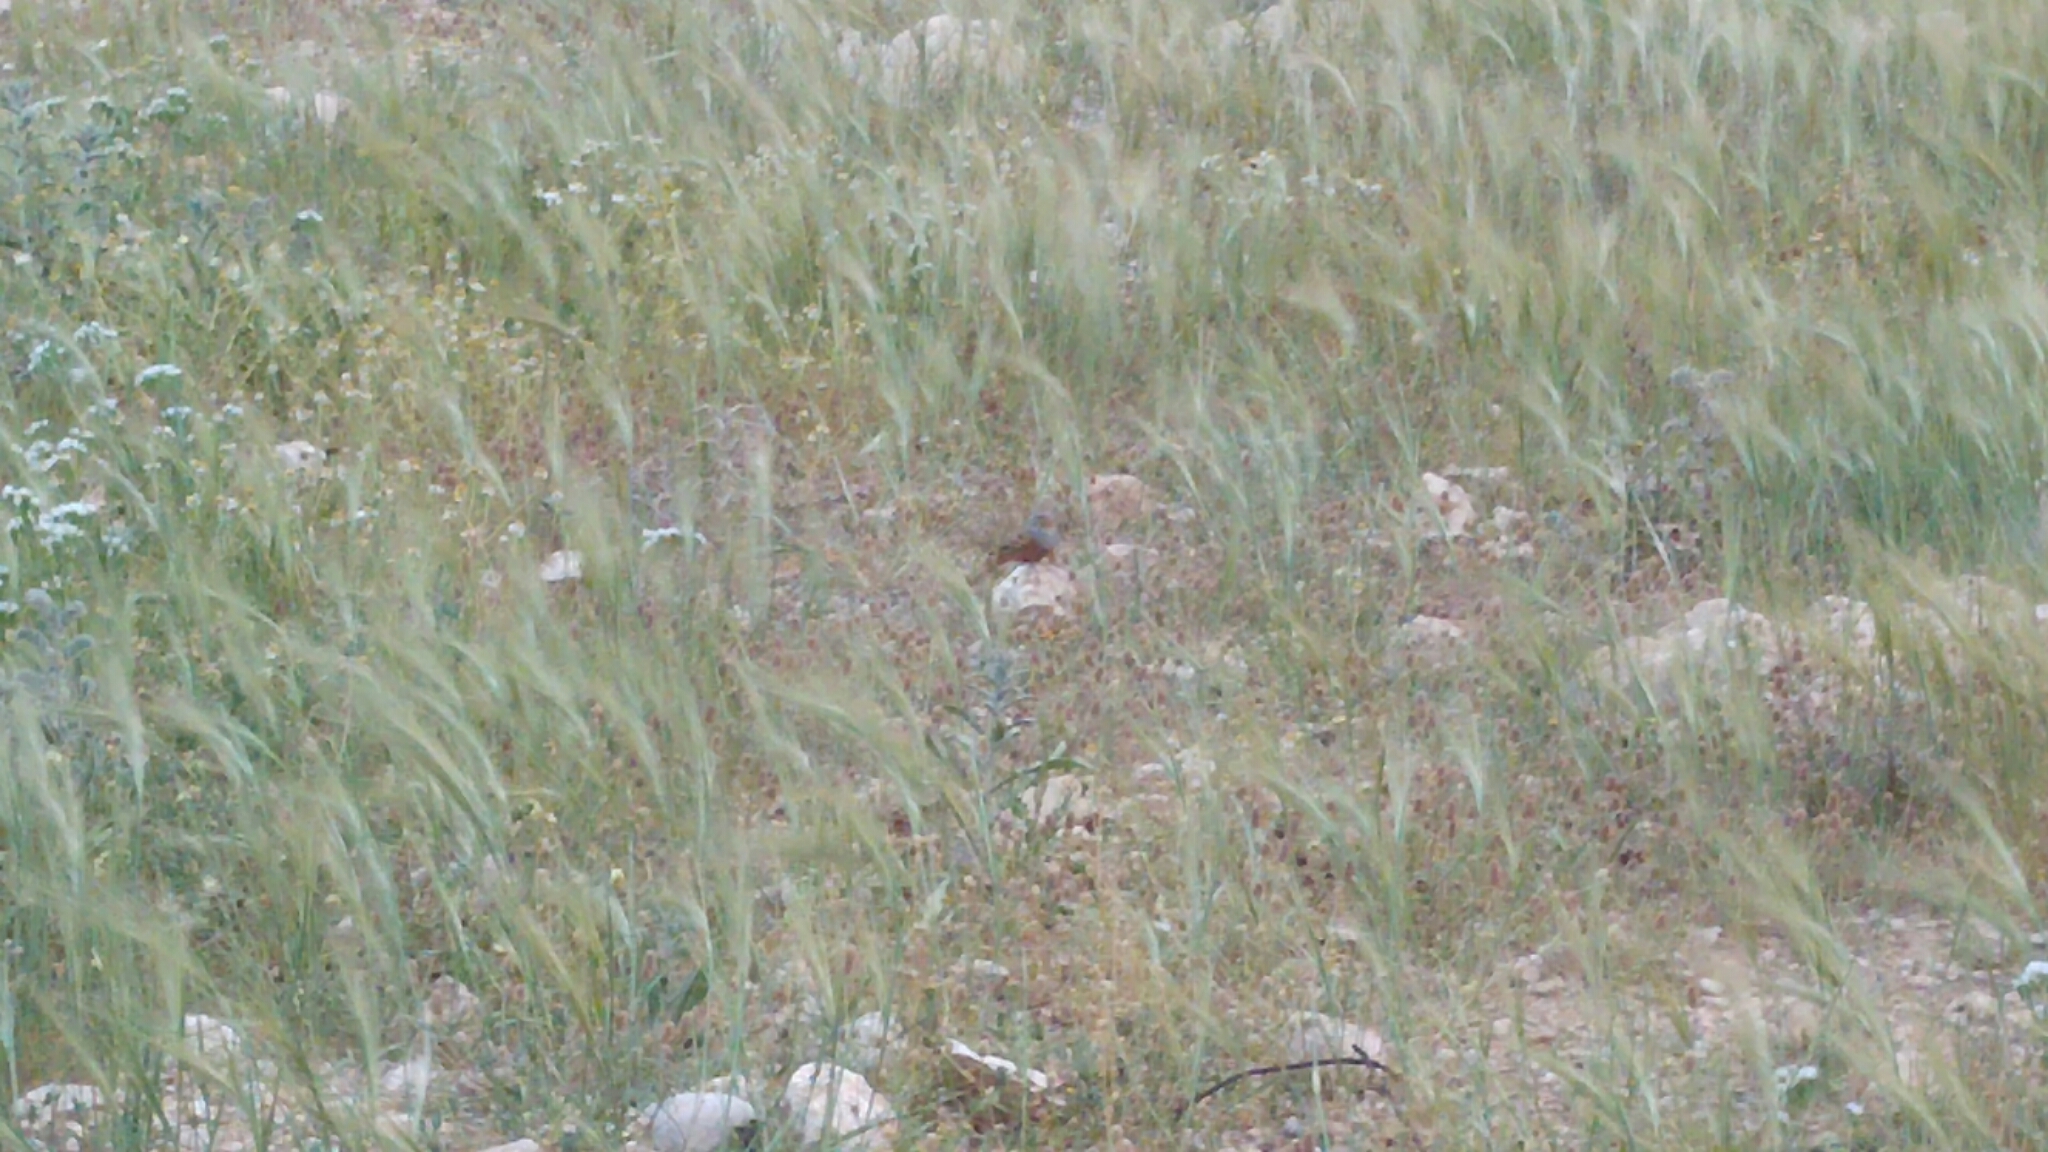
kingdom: Animalia
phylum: Chordata
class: Aves
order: Passeriformes
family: Emberizidae
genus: Emberiza
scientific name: Emberiza caesia
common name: Cretzschmar's bunting
